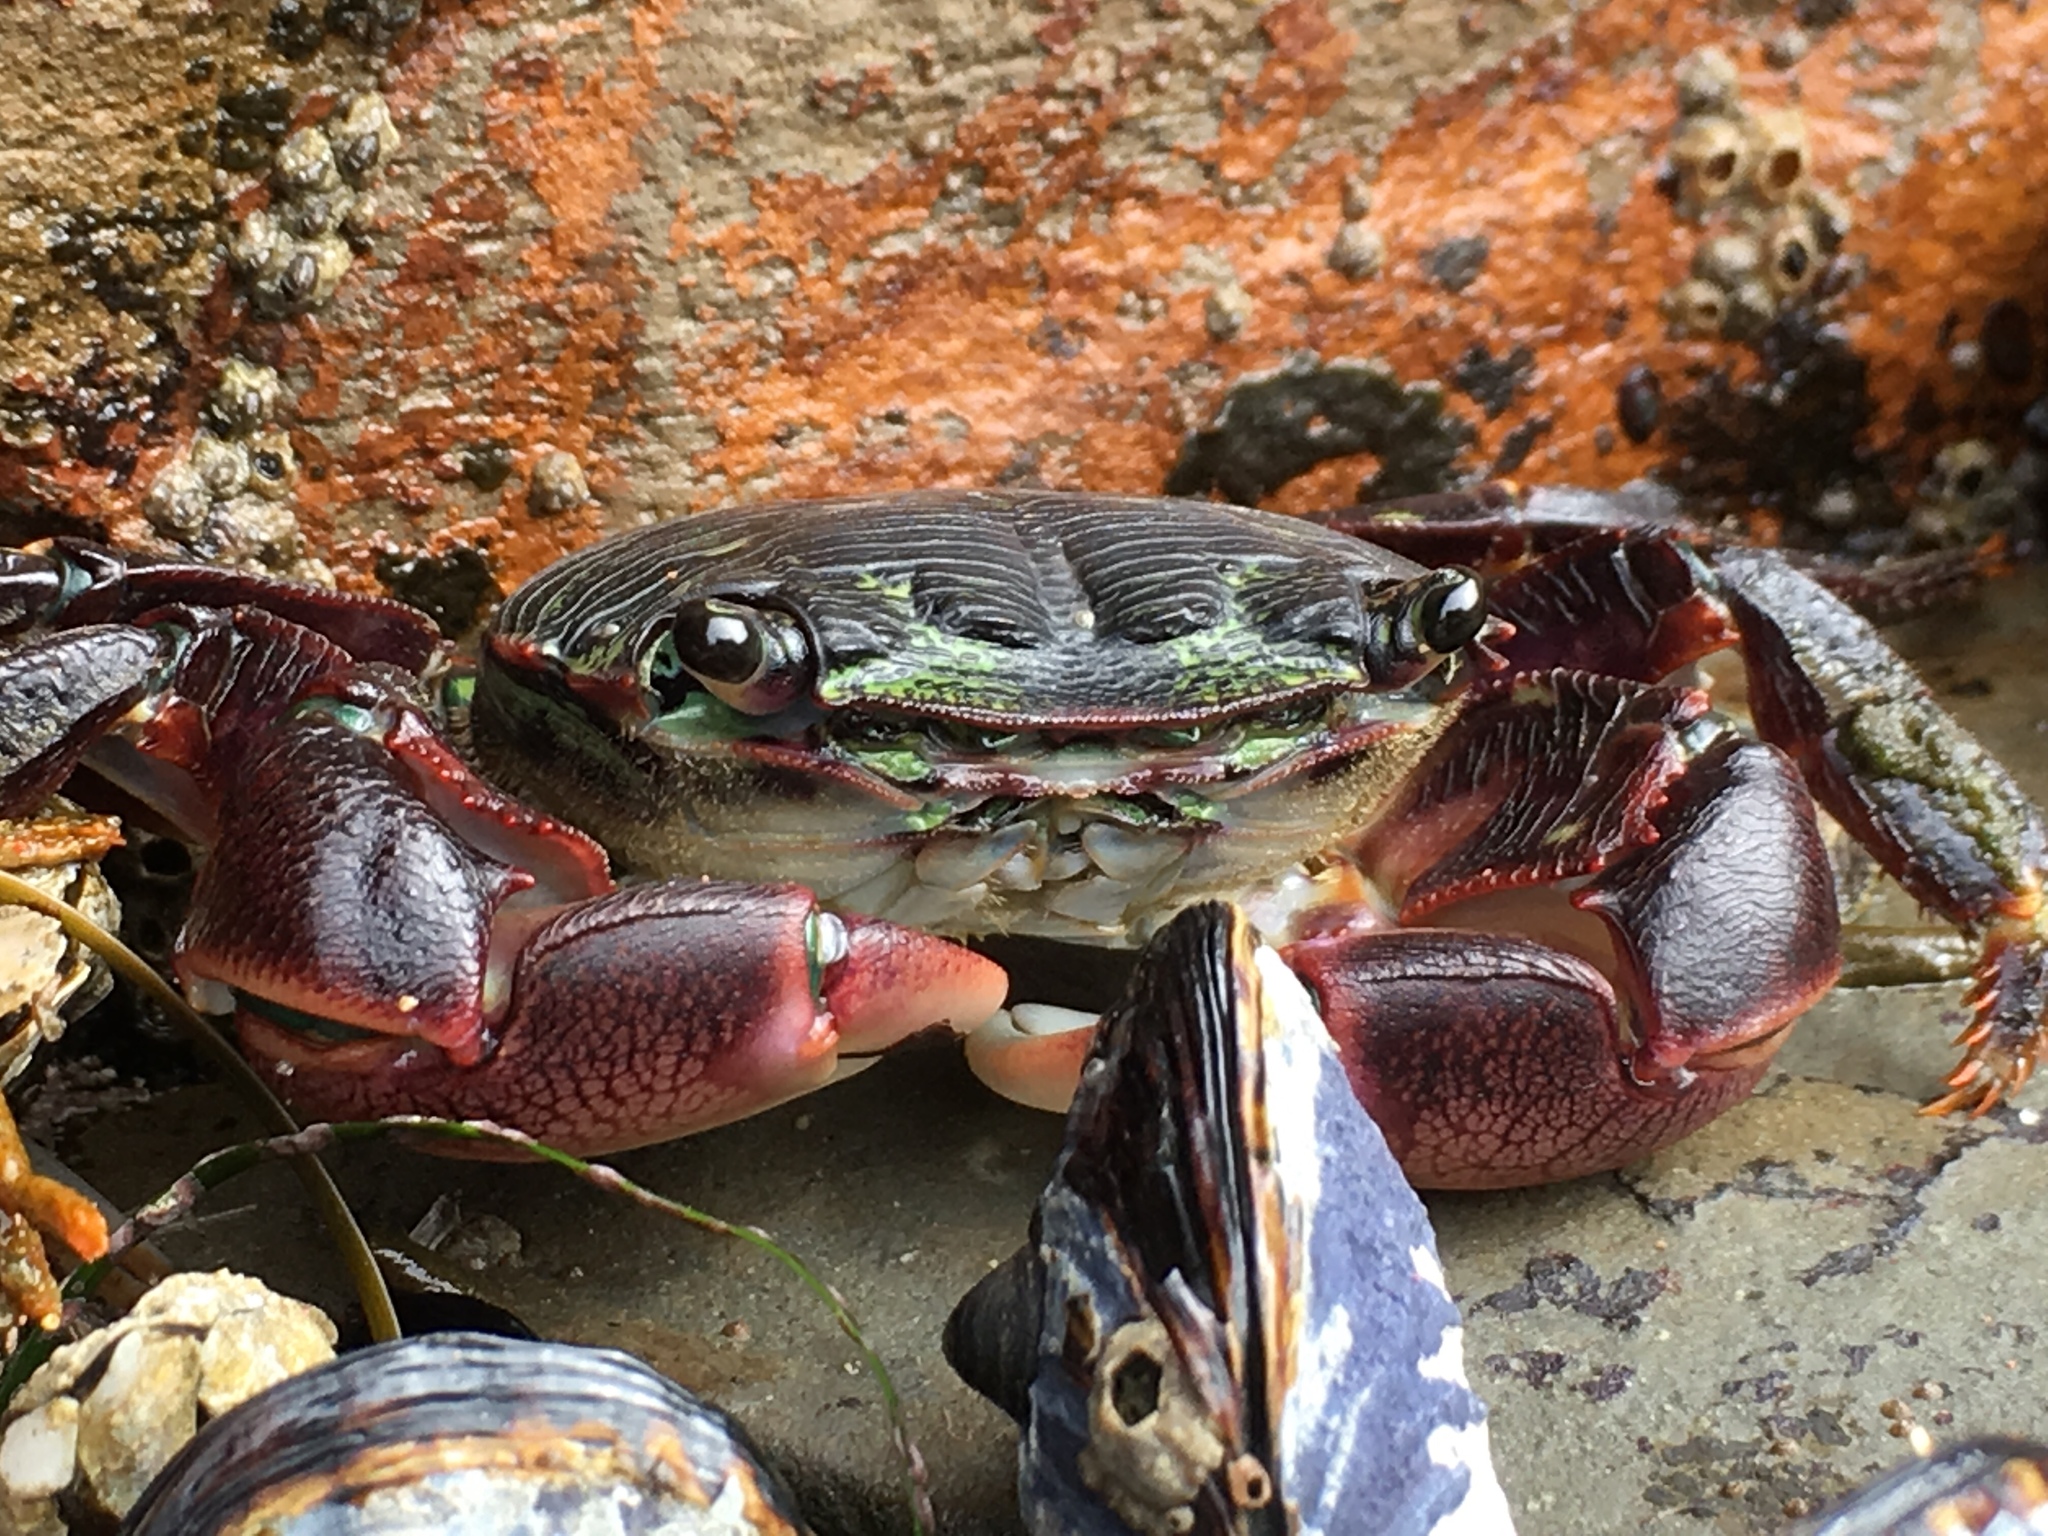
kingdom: Animalia
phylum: Arthropoda
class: Malacostraca
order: Decapoda
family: Grapsidae
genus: Pachygrapsus
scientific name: Pachygrapsus crassipes
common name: Striped shore crab
